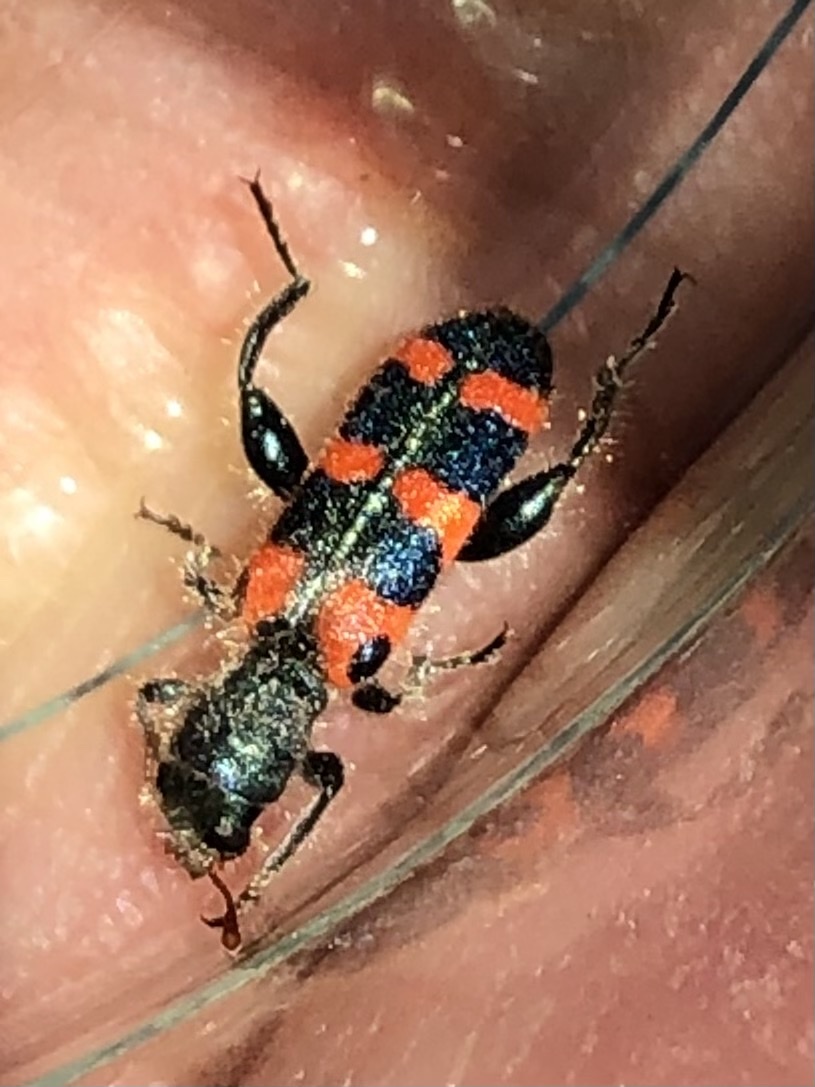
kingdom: Animalia
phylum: Arthropoda
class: Insecta
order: Coleoptera
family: Cleridae
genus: Trichodes
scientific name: Trichodes leucopsideus
